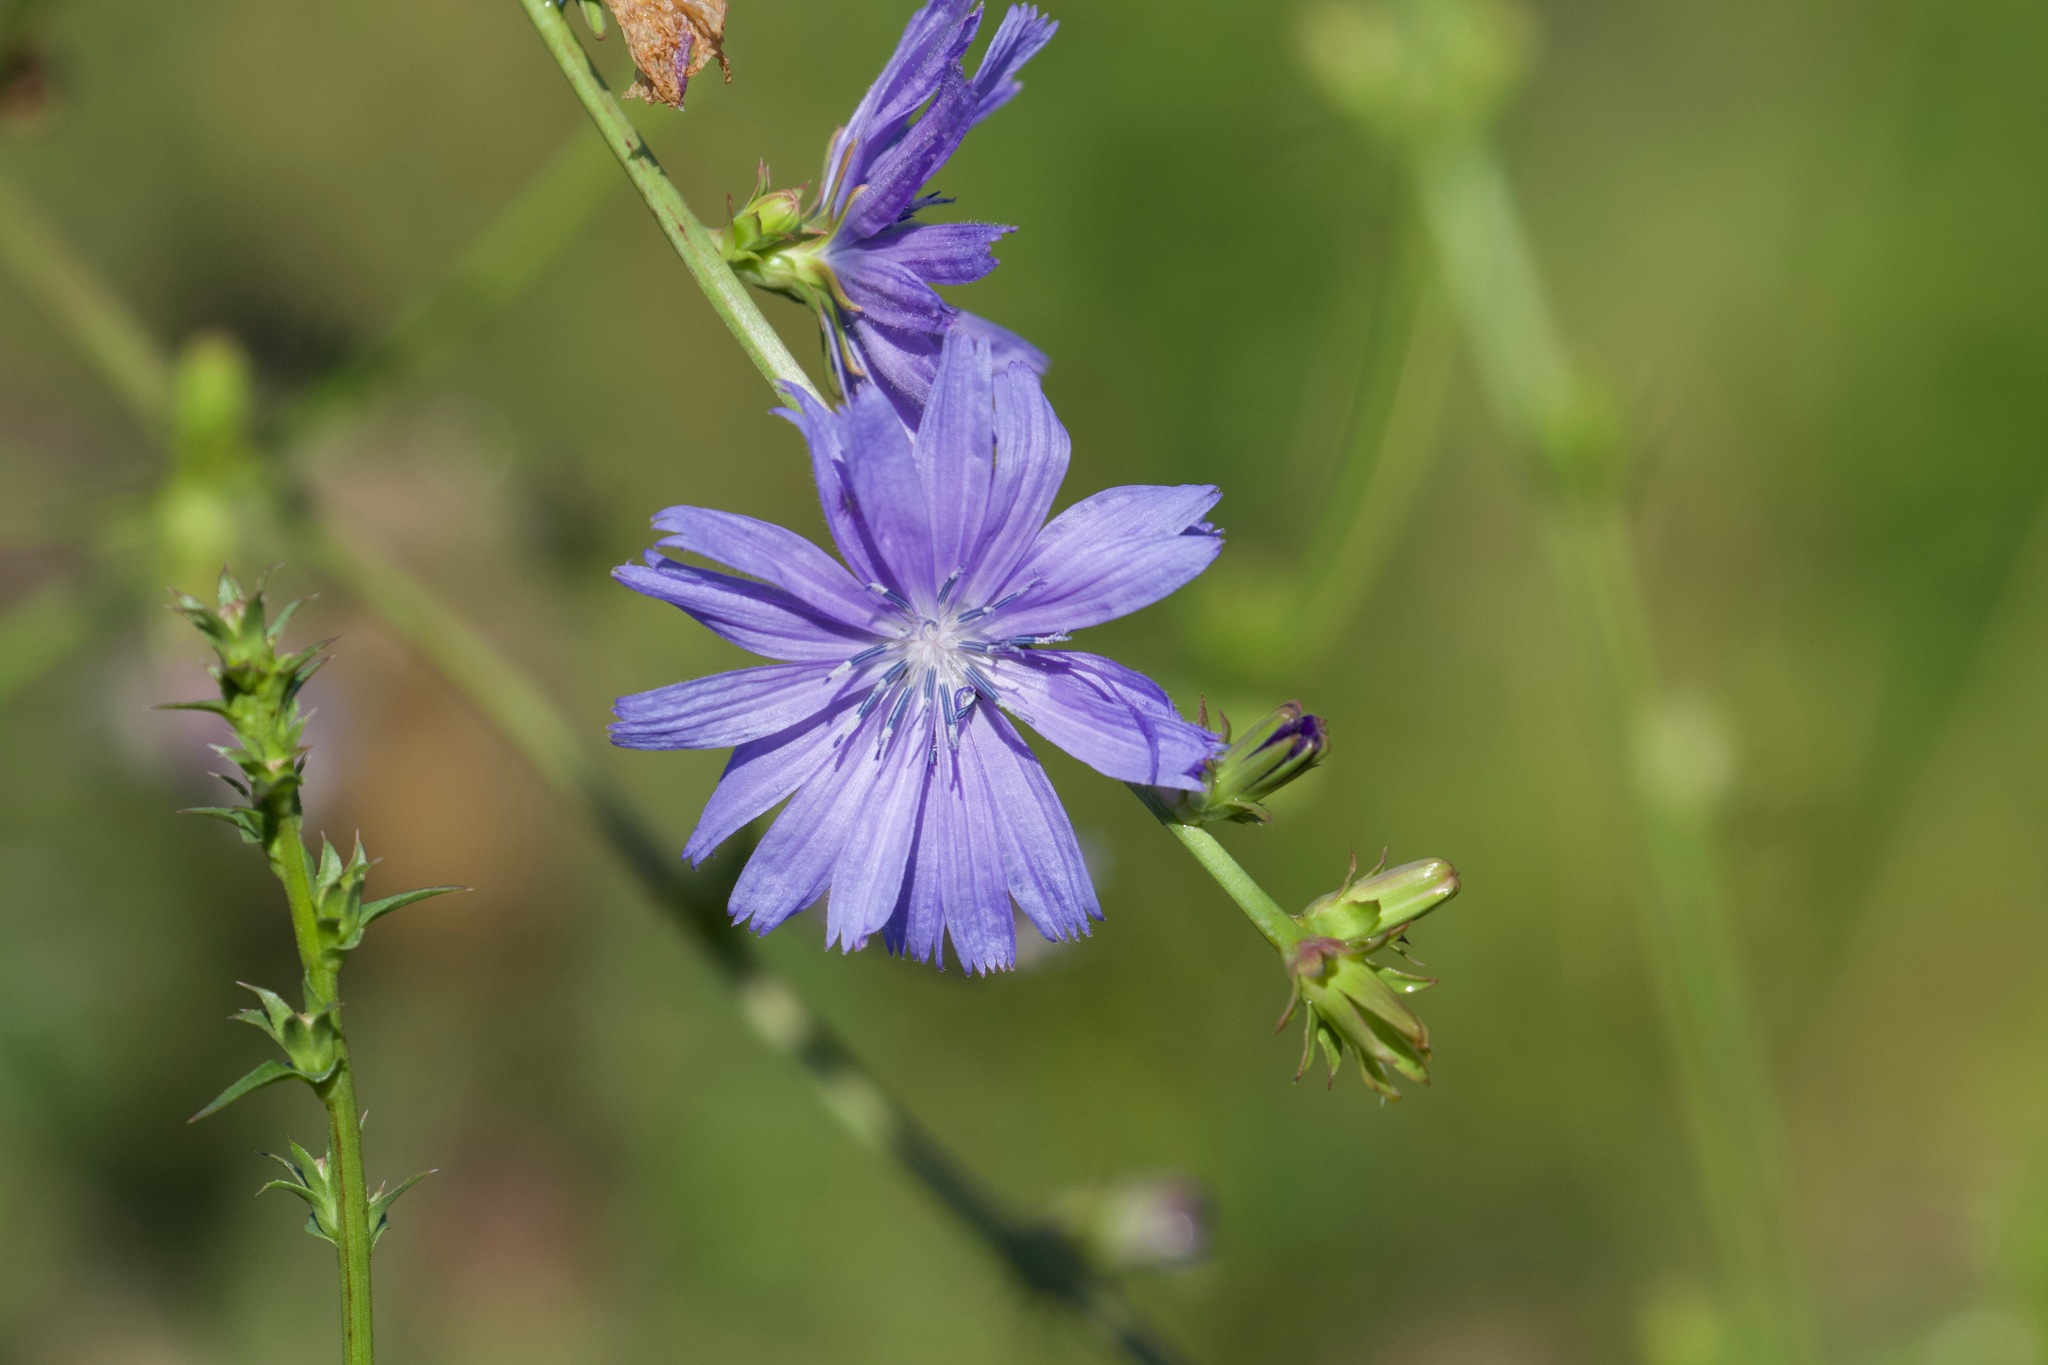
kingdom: Plantae
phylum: Tracheophyta
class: Magnoliopsida
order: Asterales
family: Asteraceae
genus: Cichorium
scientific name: Cichorium intybus
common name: Chicory
